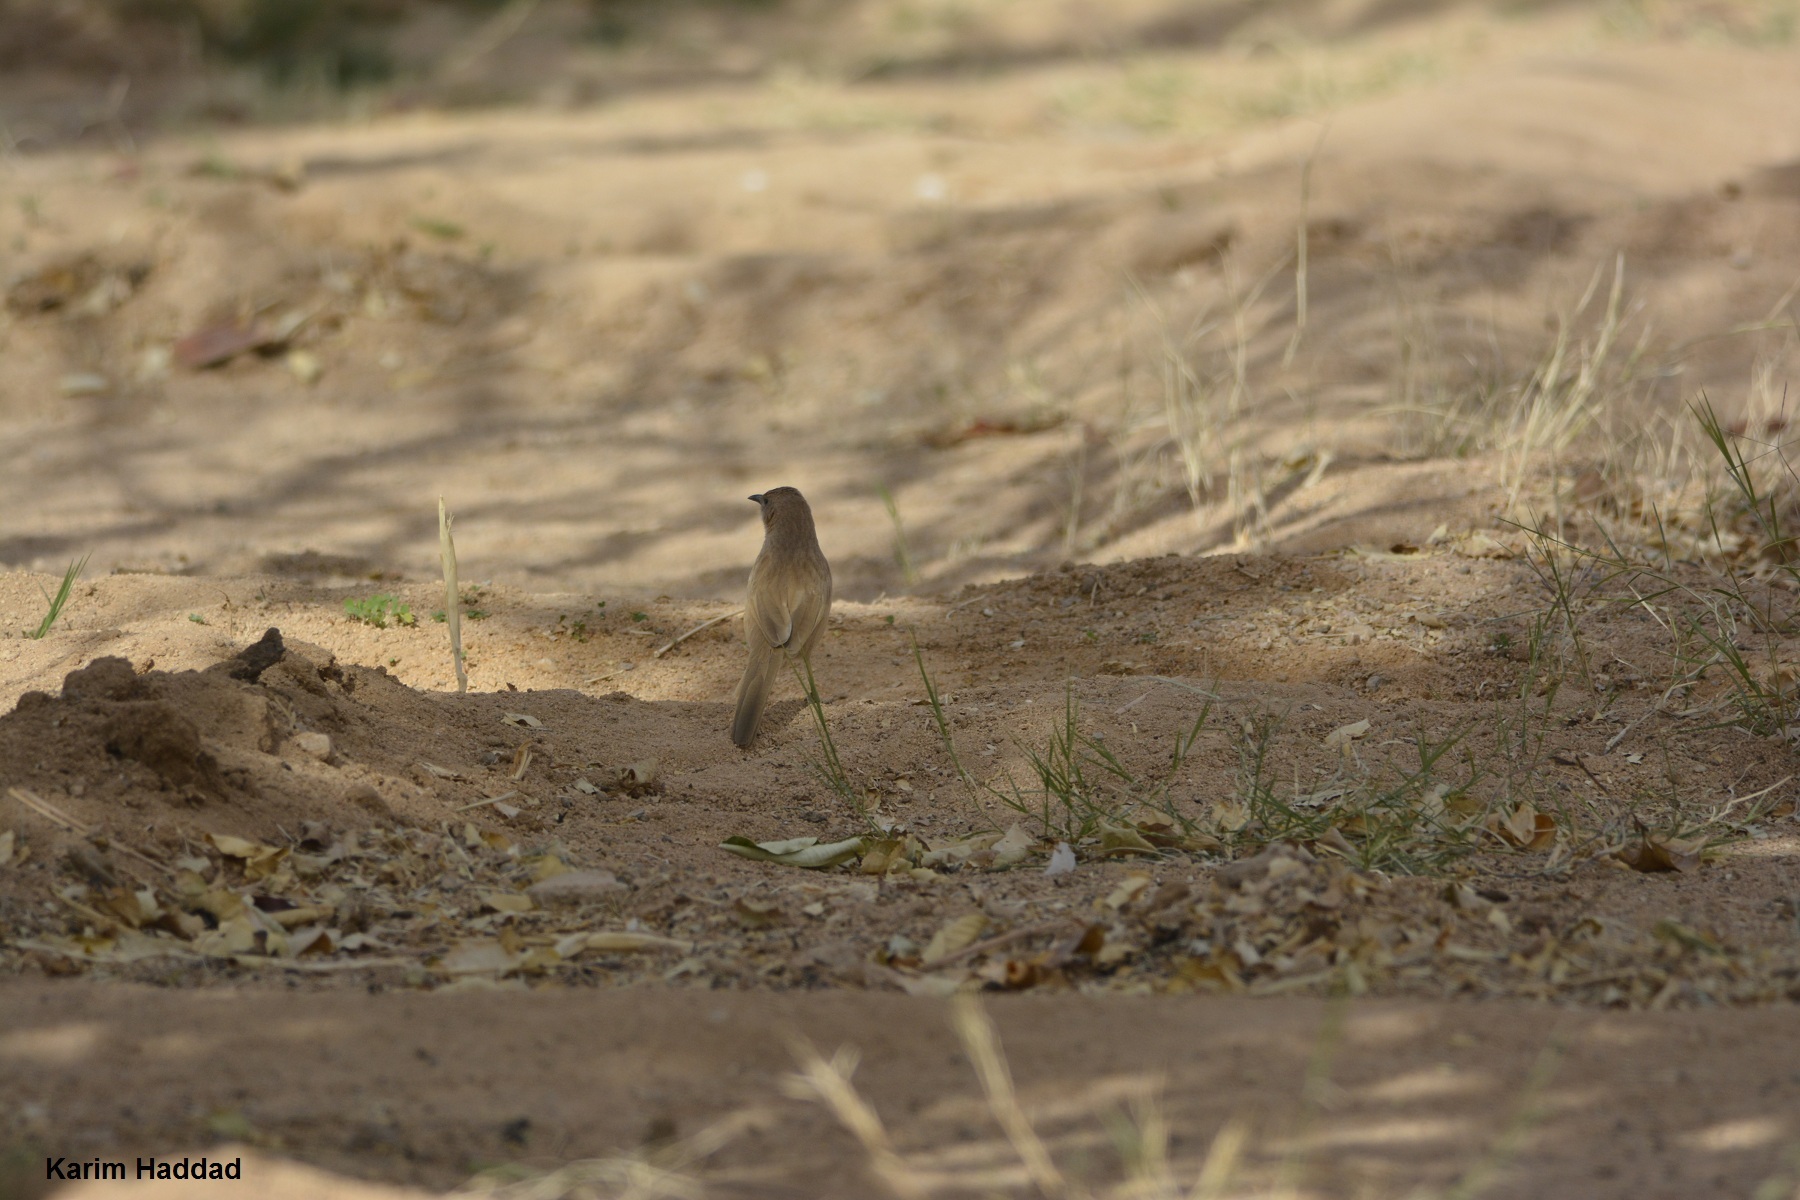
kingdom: Animalia
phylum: Chordata
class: Aves
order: Passeriformes
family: Leiothrichidae
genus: Turdoides
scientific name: Turdoides fulva
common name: Fulvous babbler
